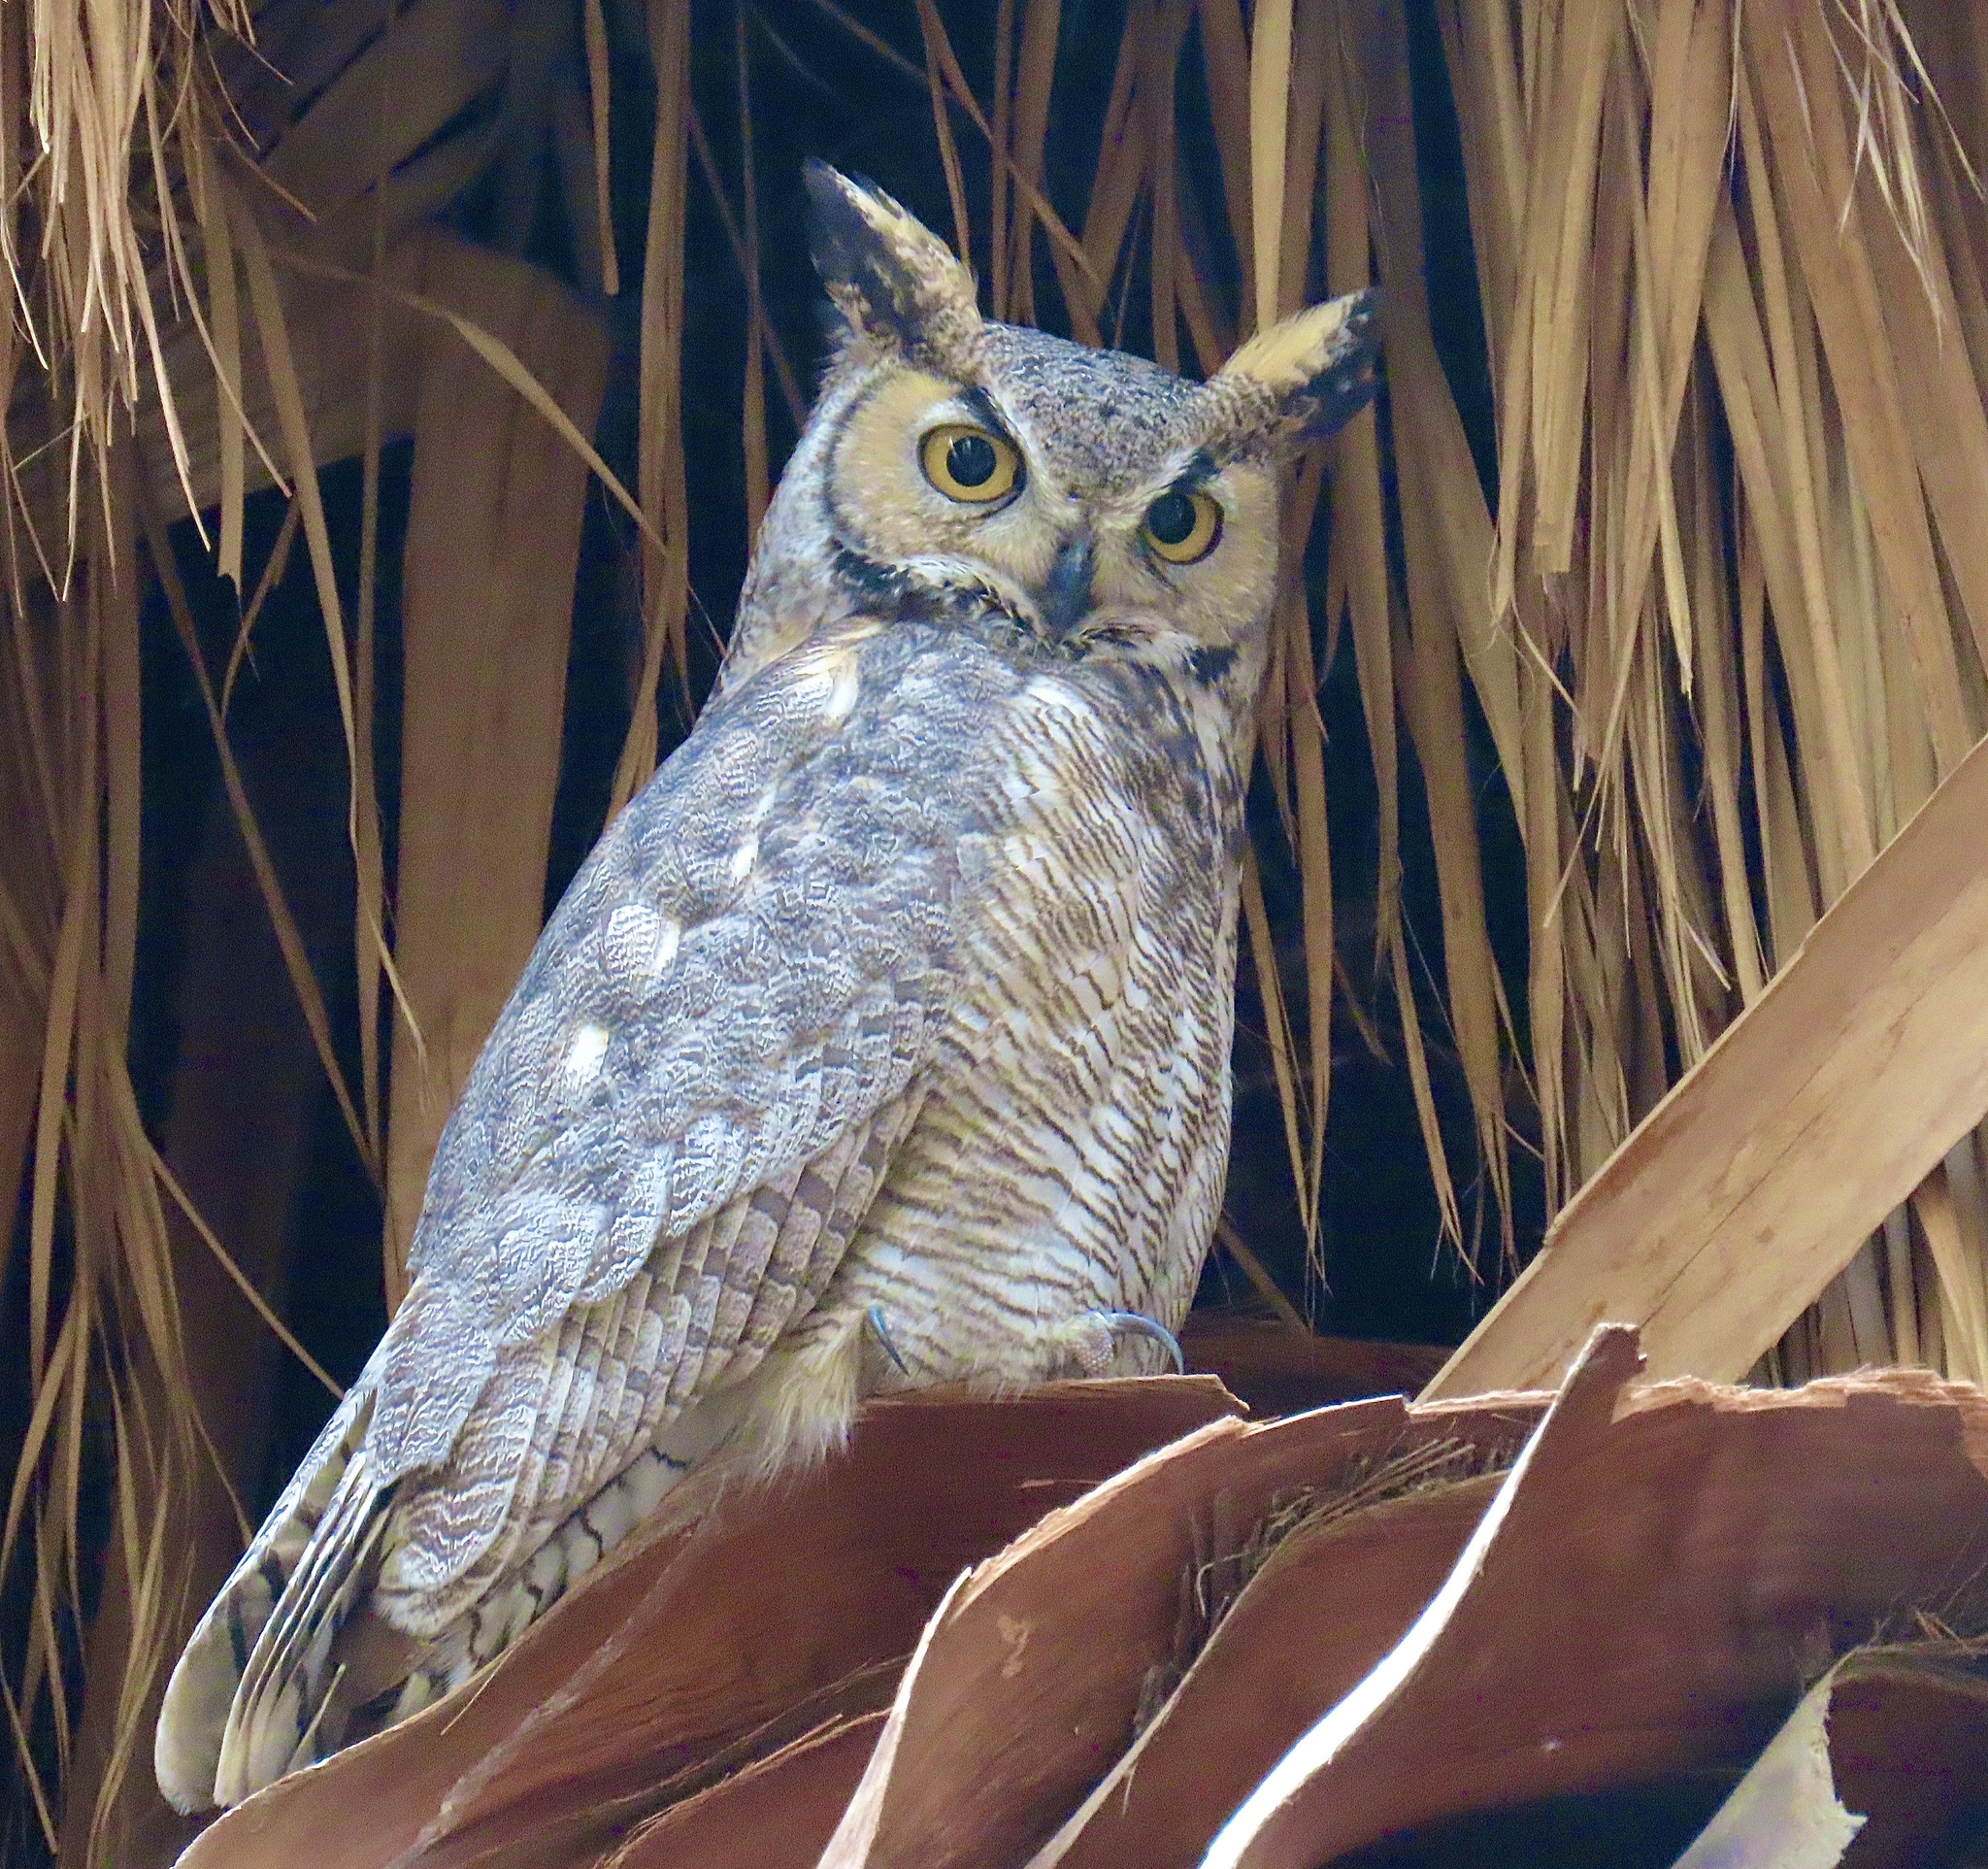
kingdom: Animalia
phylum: Chordata
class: Aves
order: Strigiformes
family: Strigidae
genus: Bubo
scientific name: Bubo virginianus
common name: Great horned owl
